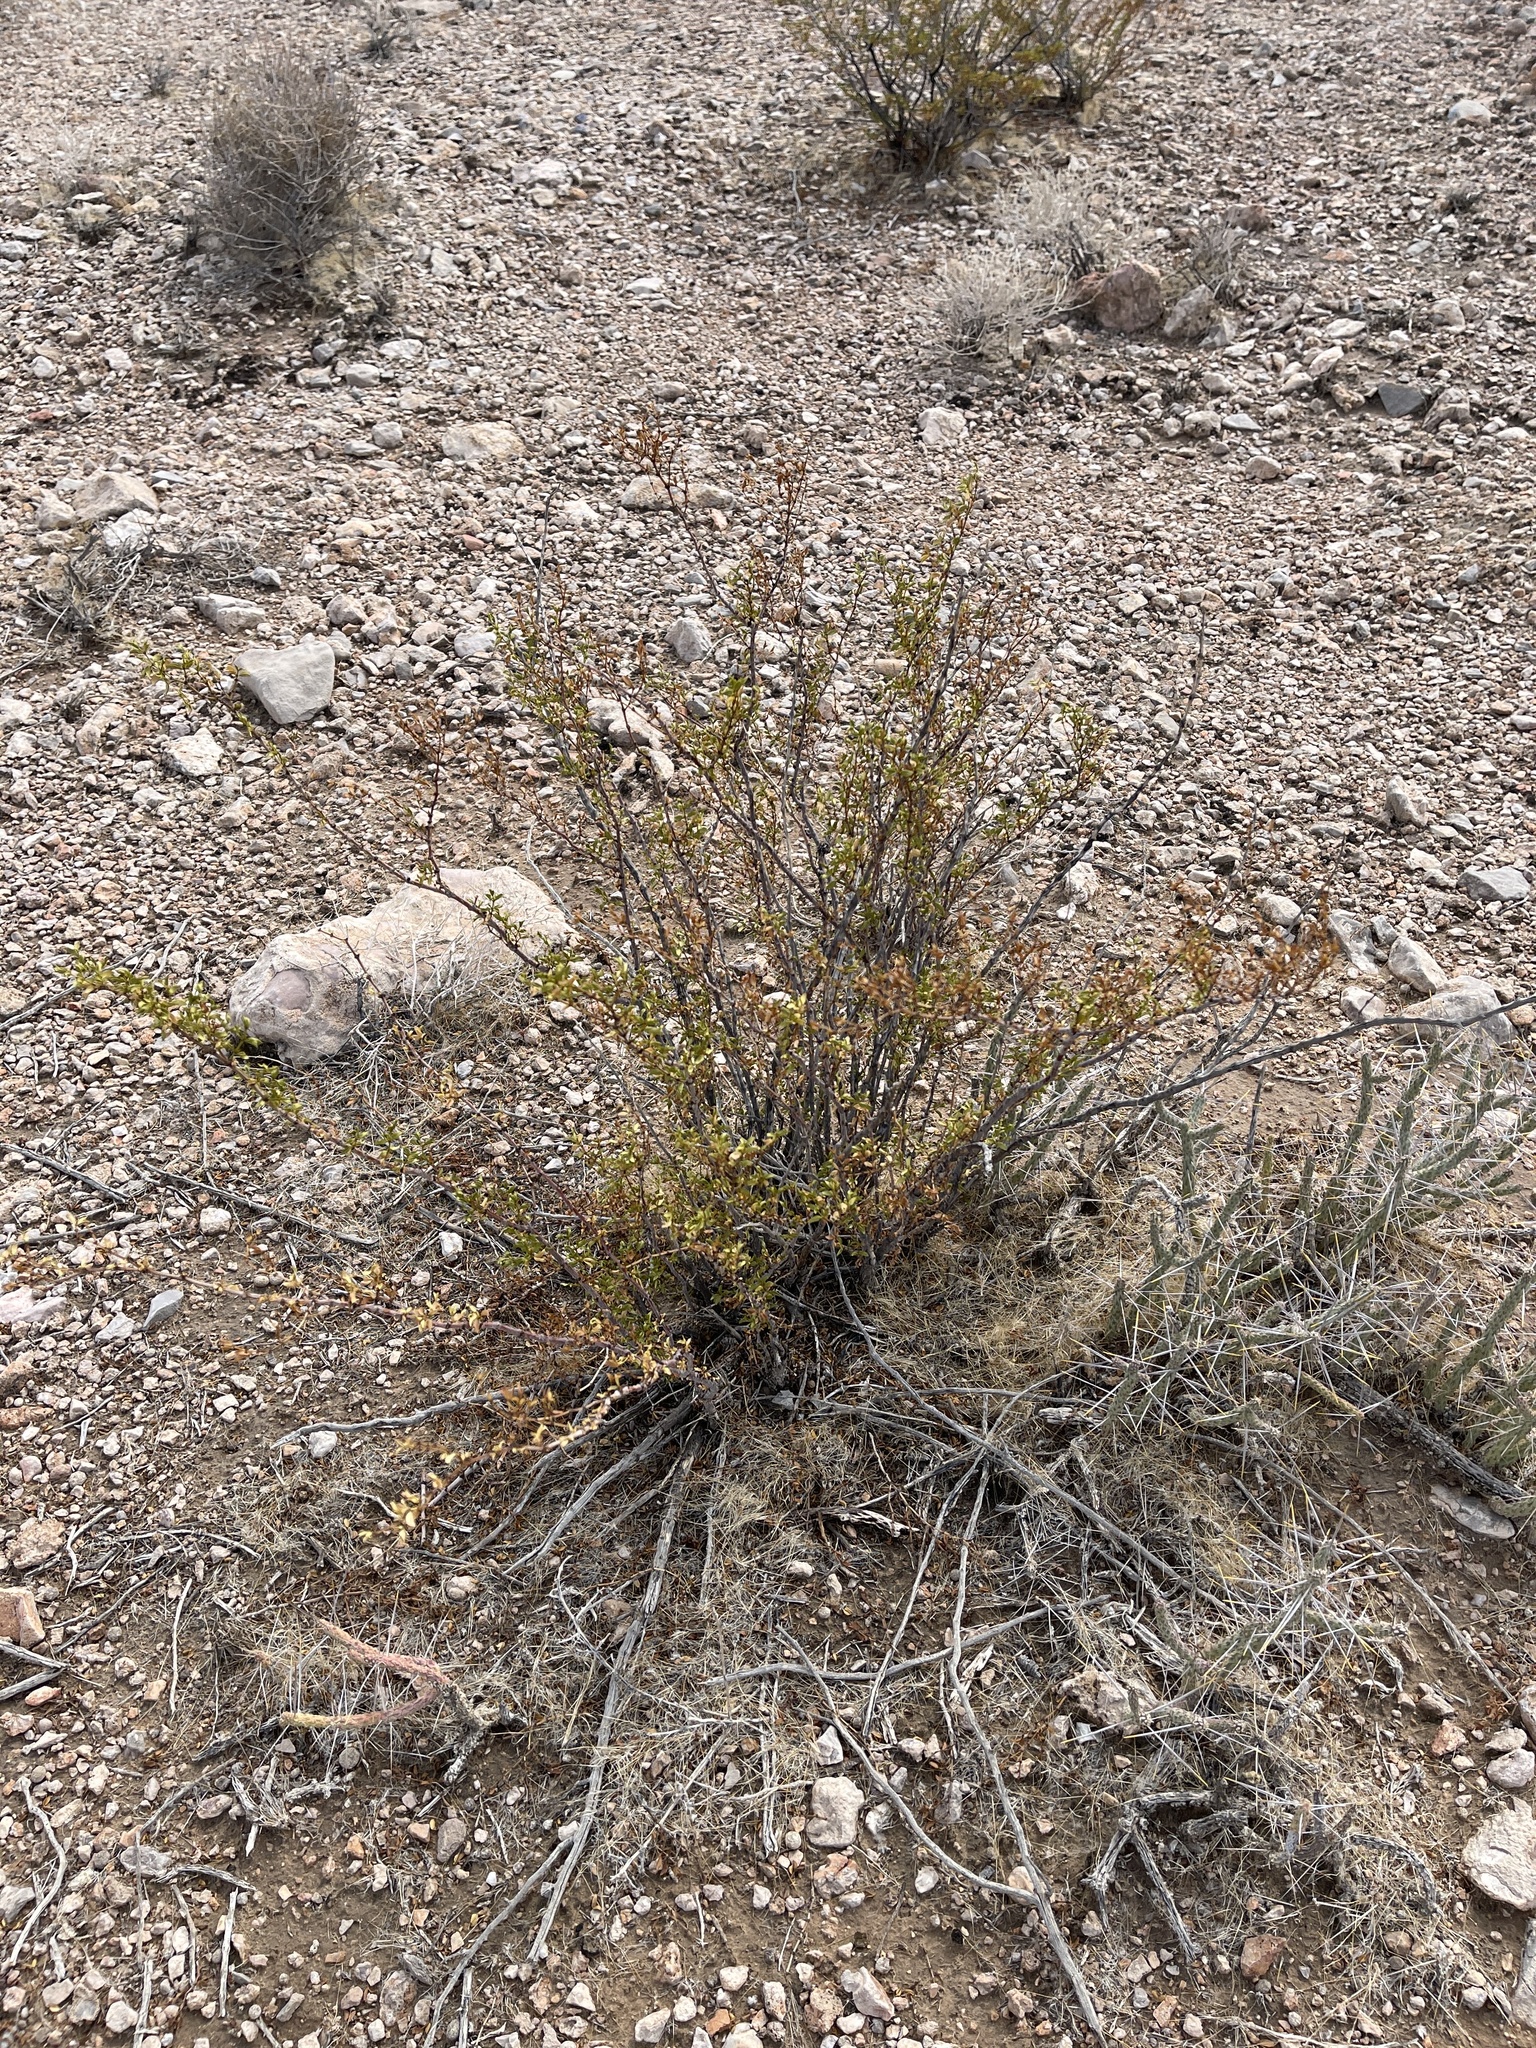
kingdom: Plantae
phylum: Tracheophyta
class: Magnoliopsida
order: Zygophyllales
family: Zygophyllaceae
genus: Larrea
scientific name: Larrea tridentata
